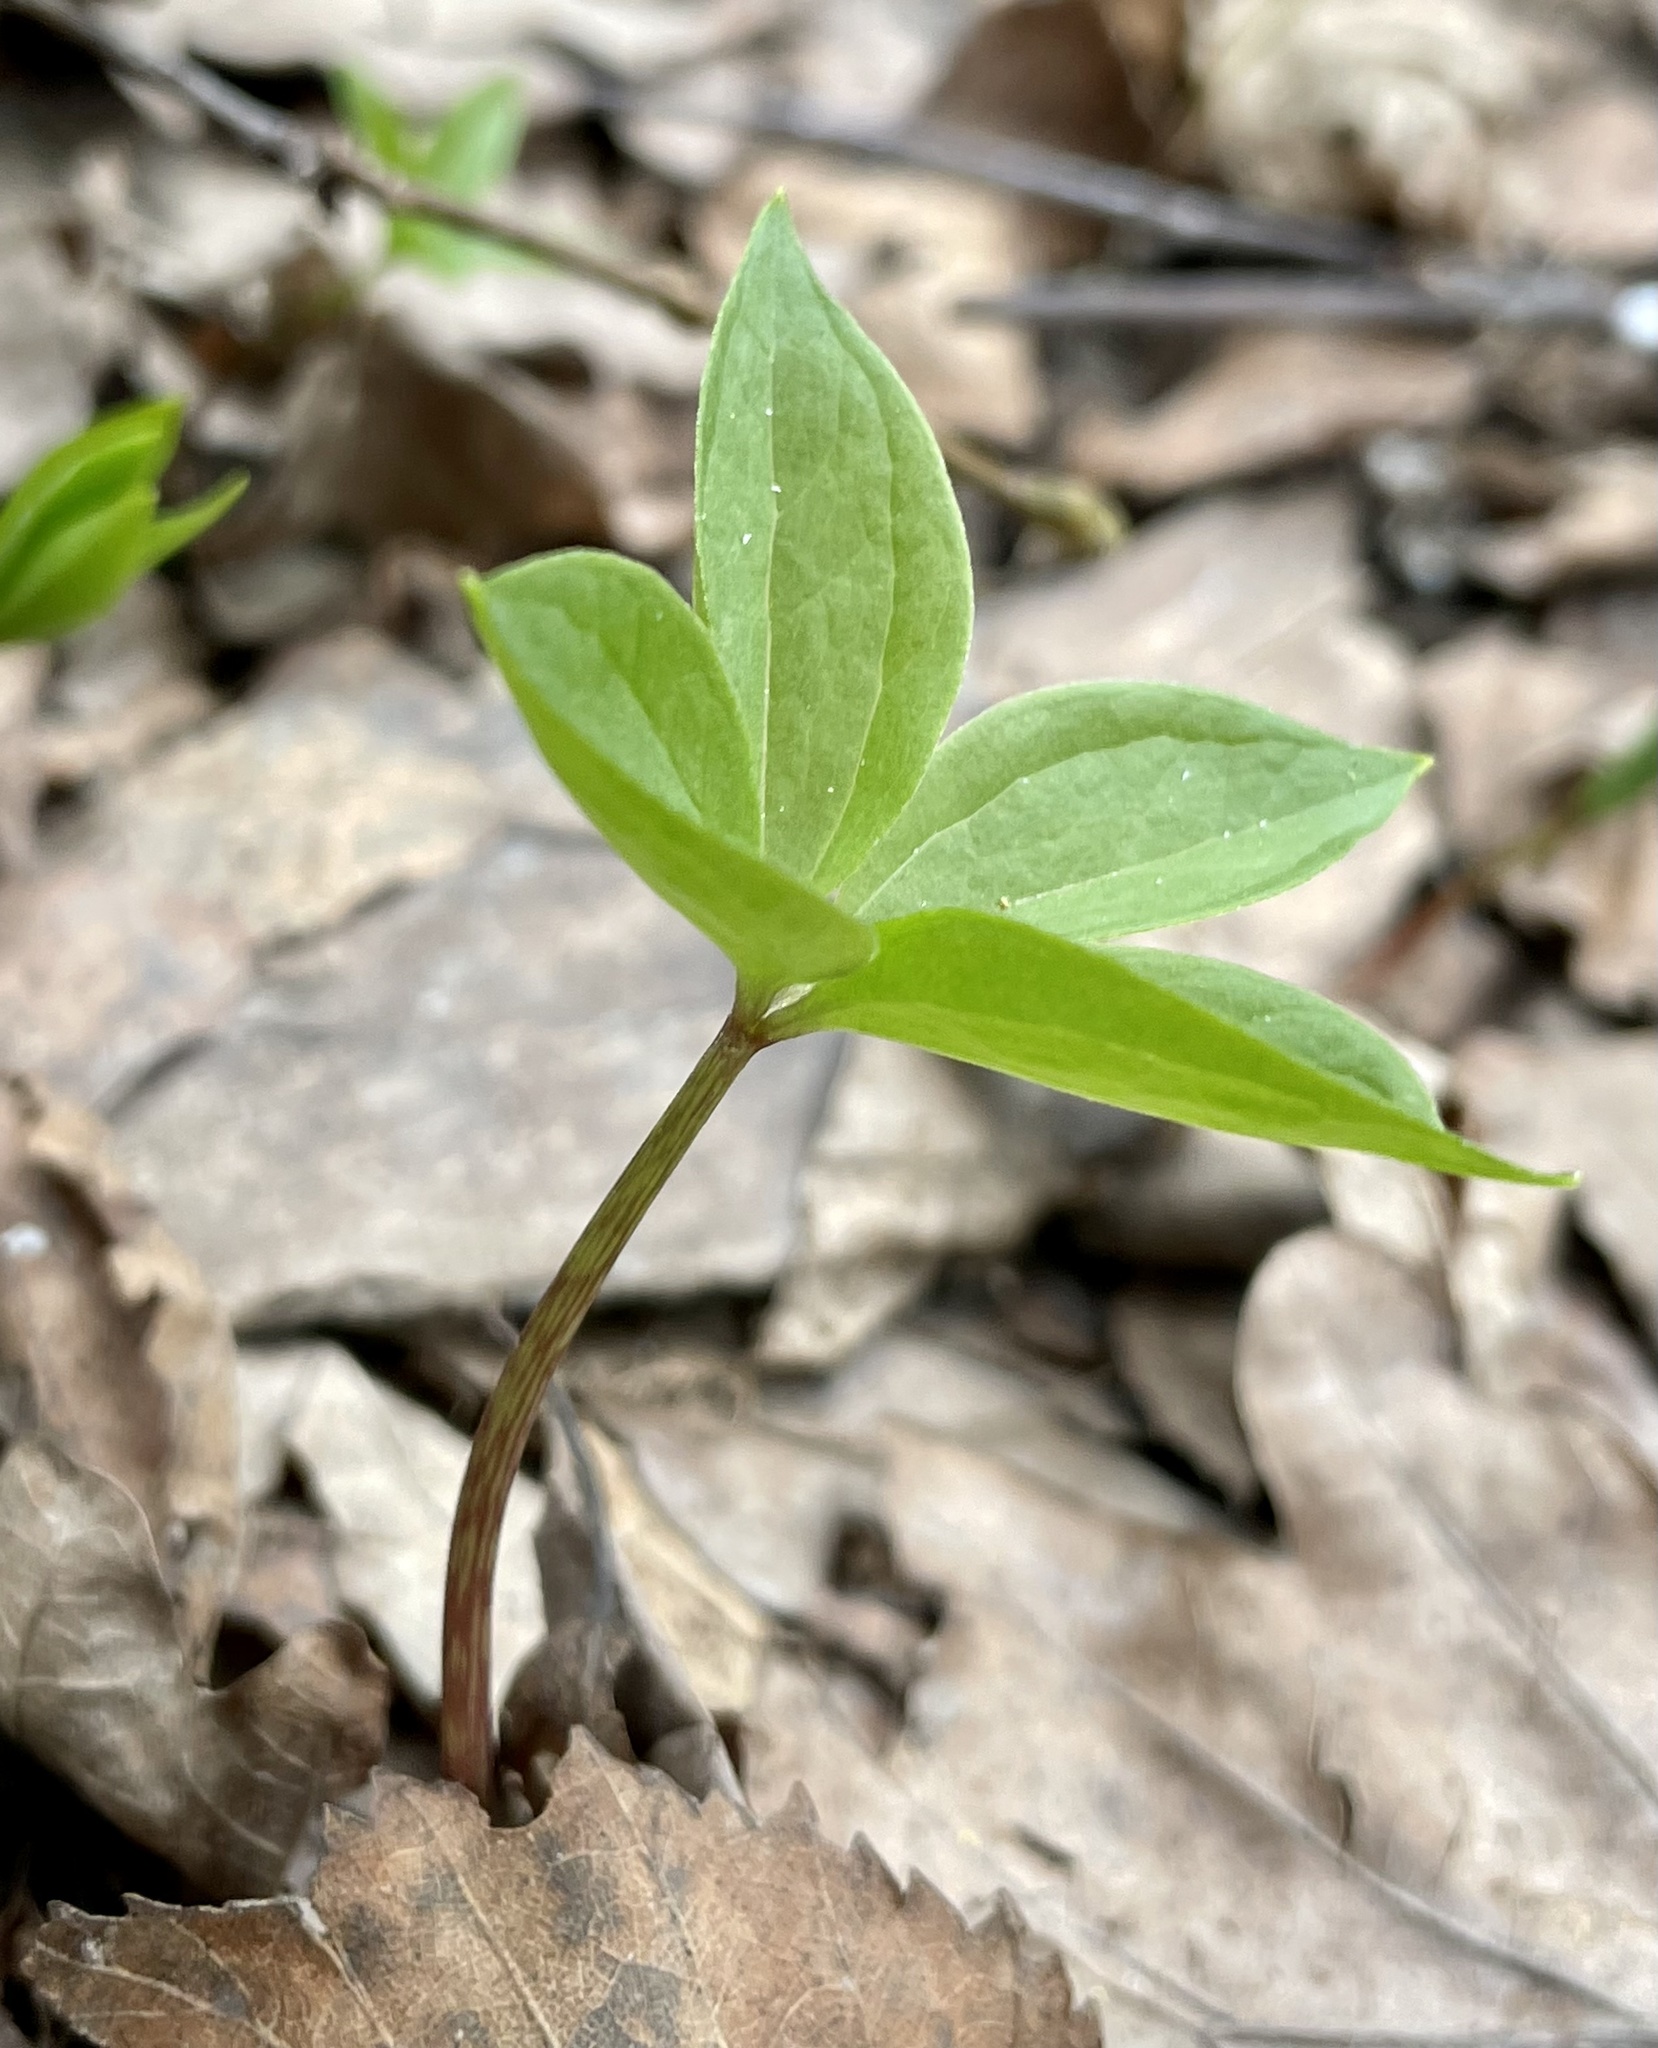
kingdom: Plantae
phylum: Tracheophyta
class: Liliopsida
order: Liliales
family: Melanthiaceae
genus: Paris
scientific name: Paris quadrifolia
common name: Herb-paris
